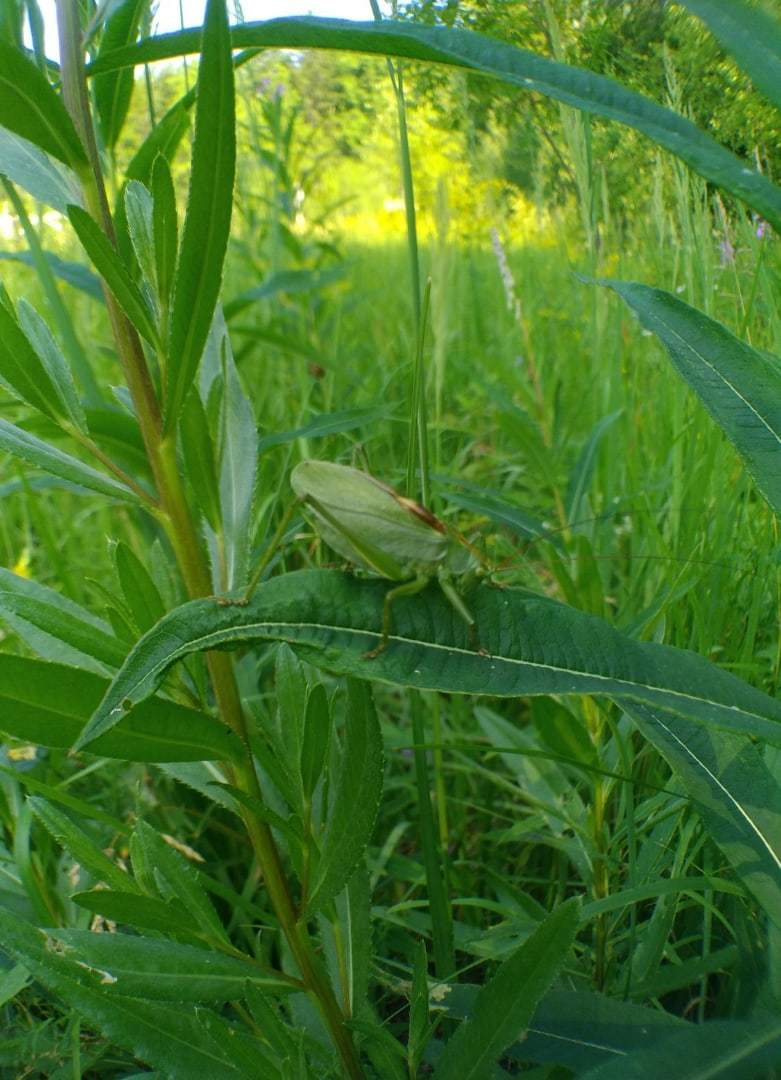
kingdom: Animalia
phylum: Arthropoda
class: Insecta
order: Orthoptera
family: Tettigoniidae
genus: Tettigonia
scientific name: Tettigonia cantans
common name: Upland green bush-cricket
